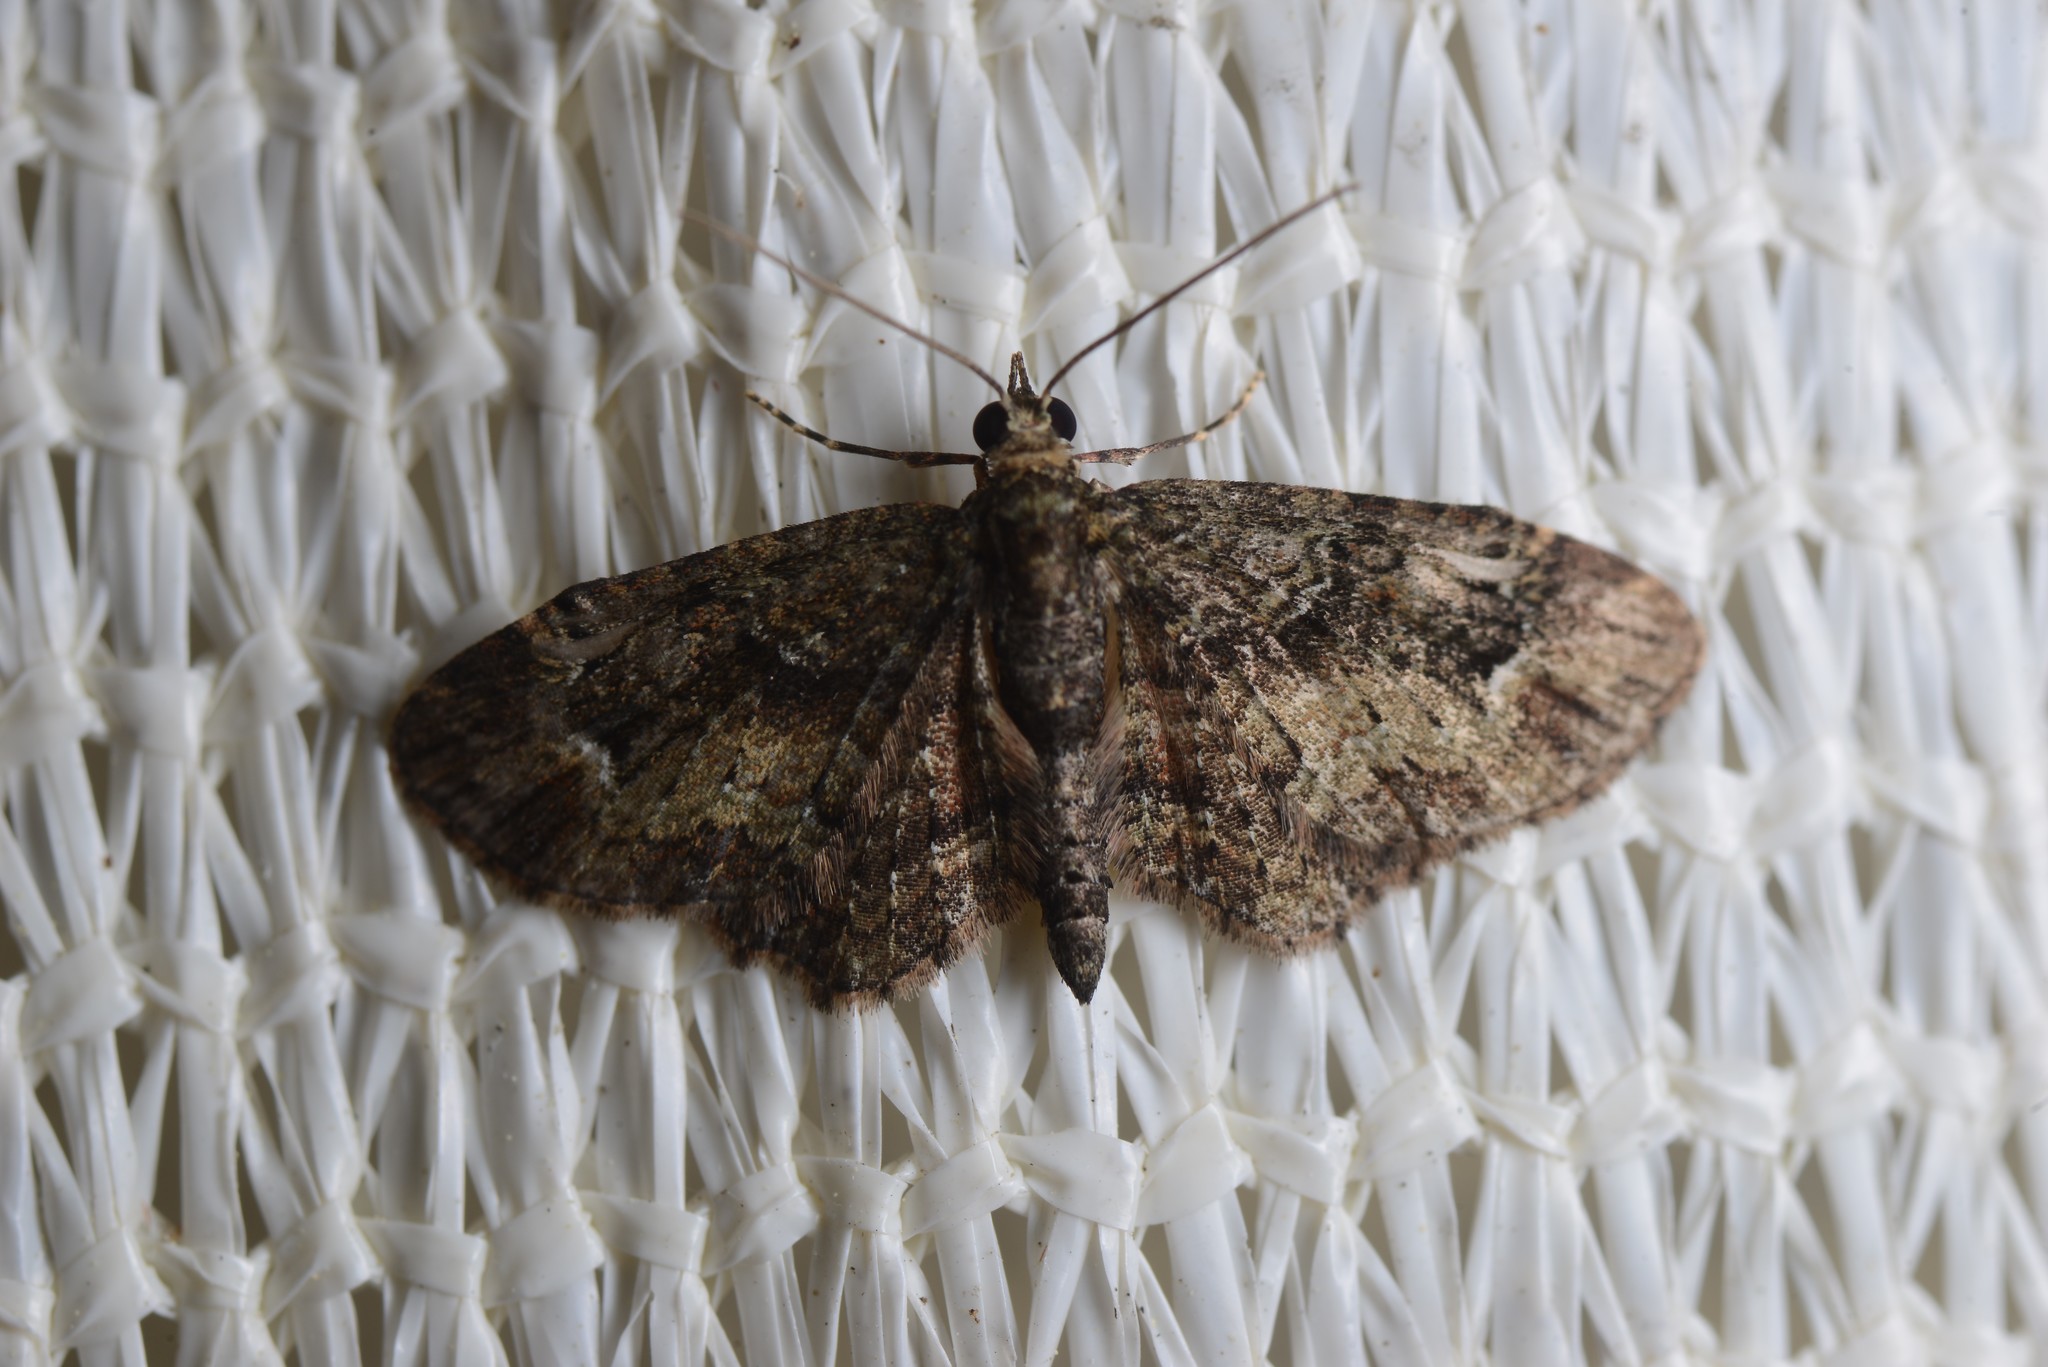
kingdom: Animalia
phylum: Arthropoda
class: Insecta
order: Lepidoptera
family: Geometridae
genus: Pasiphilodes
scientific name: Pasiphilodes testulata
